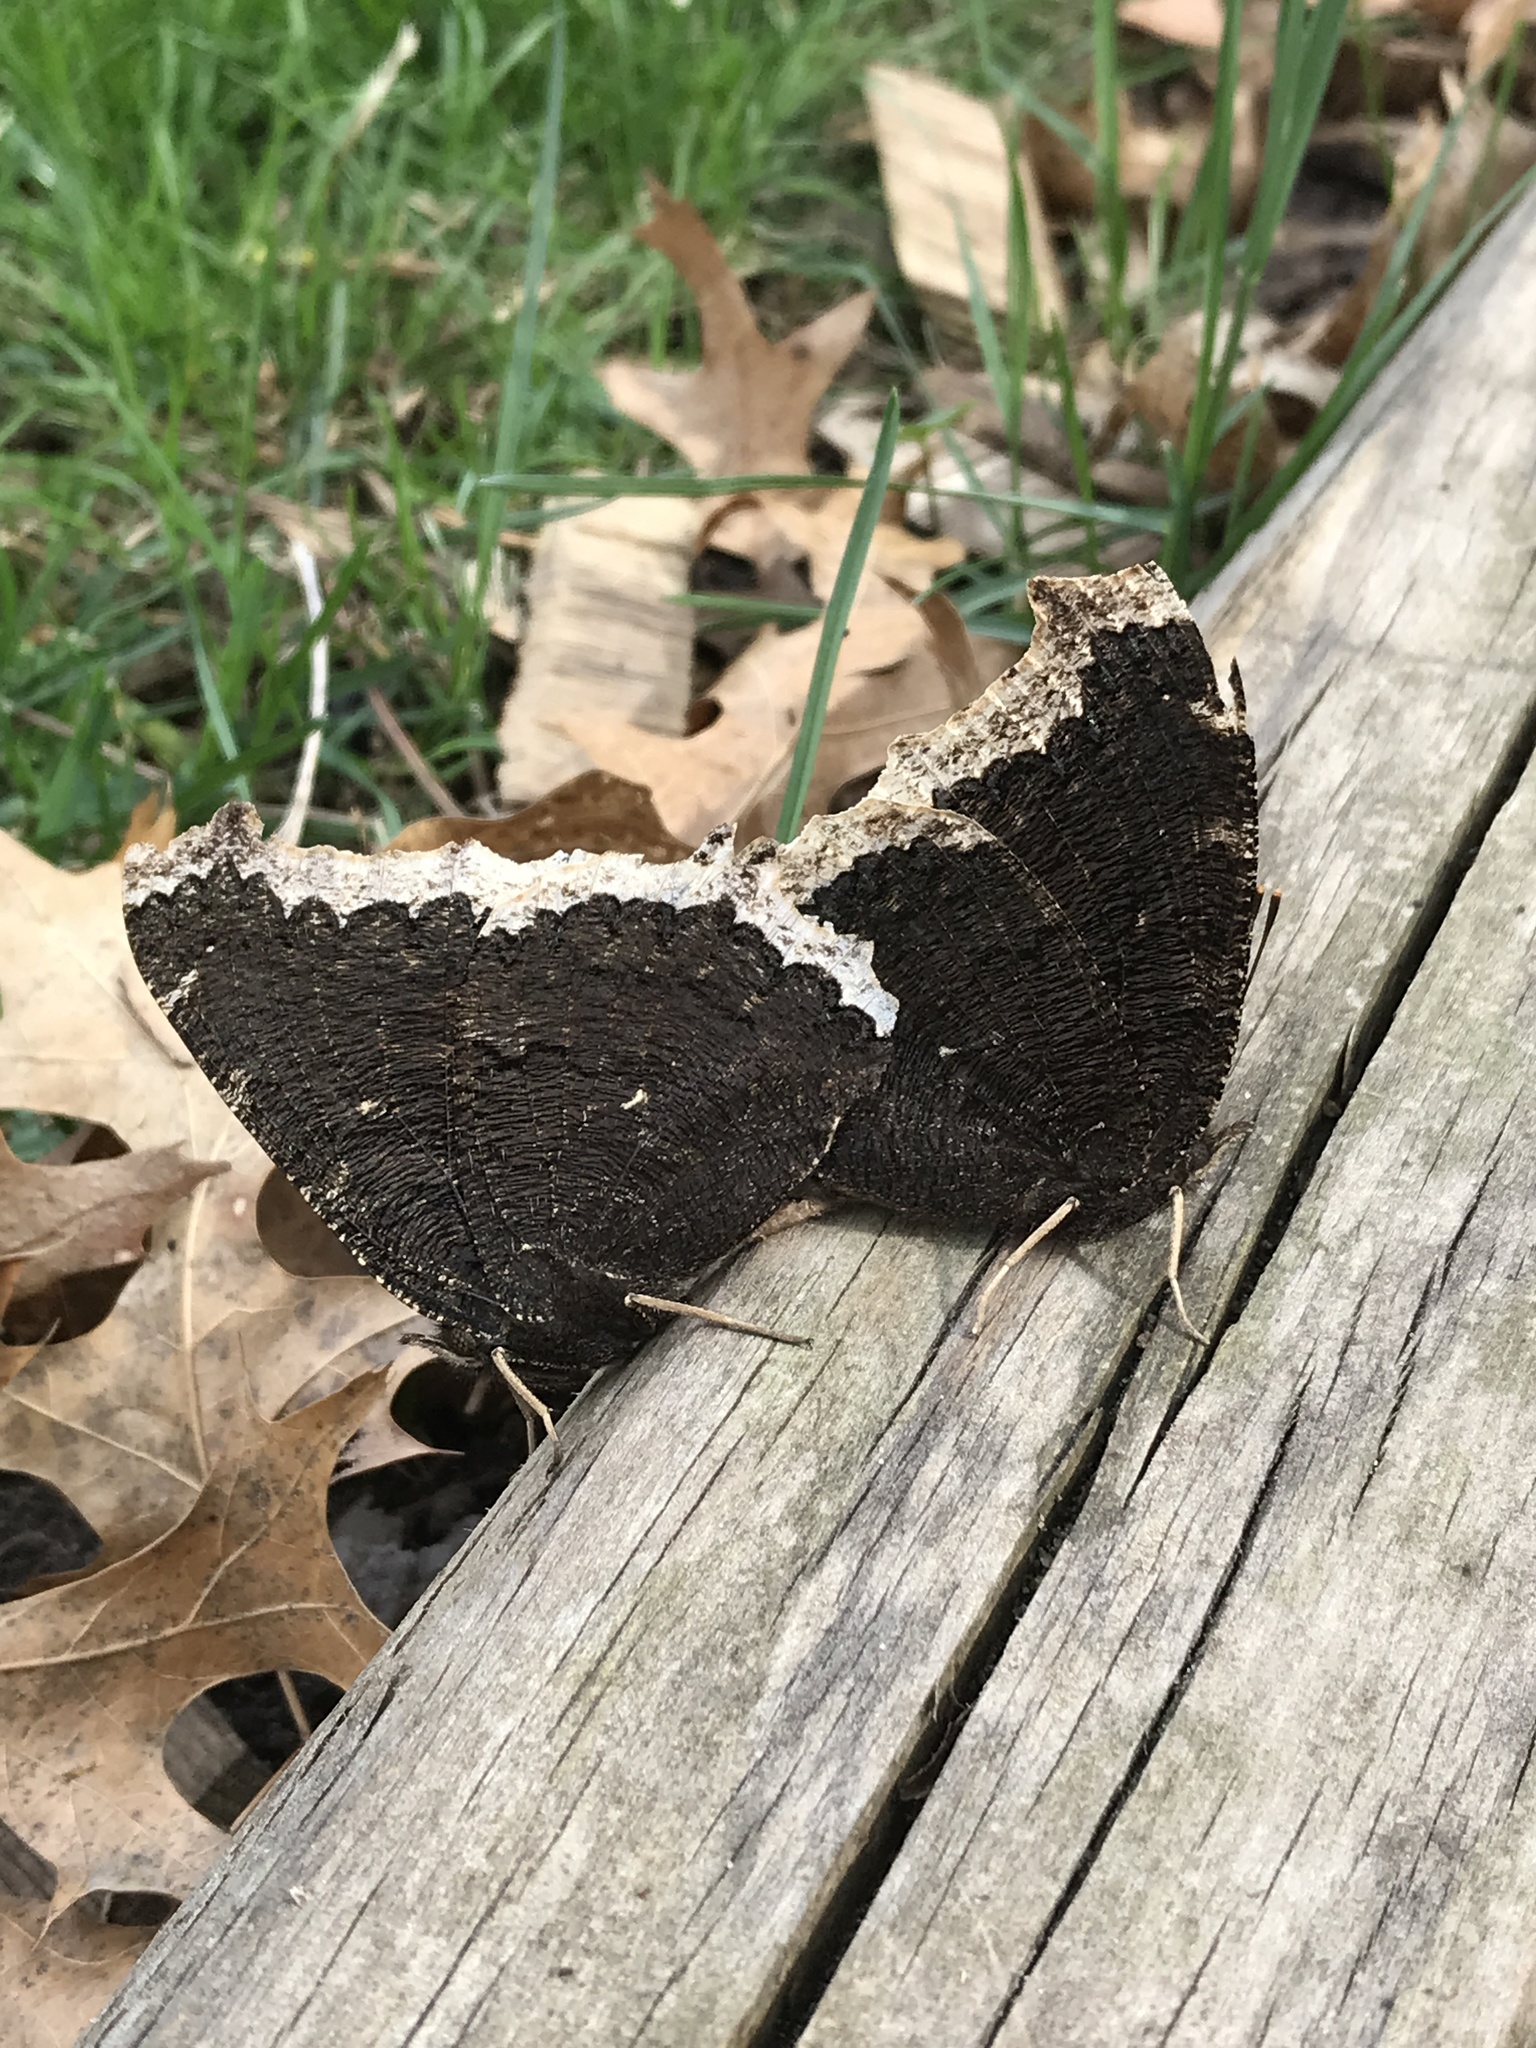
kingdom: Animalia
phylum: Arthropoda
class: Insecta
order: Lepidoptera
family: Nymphalidae
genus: Nymphalis
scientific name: Nymphalis antiopa
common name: Camberwell beauty
